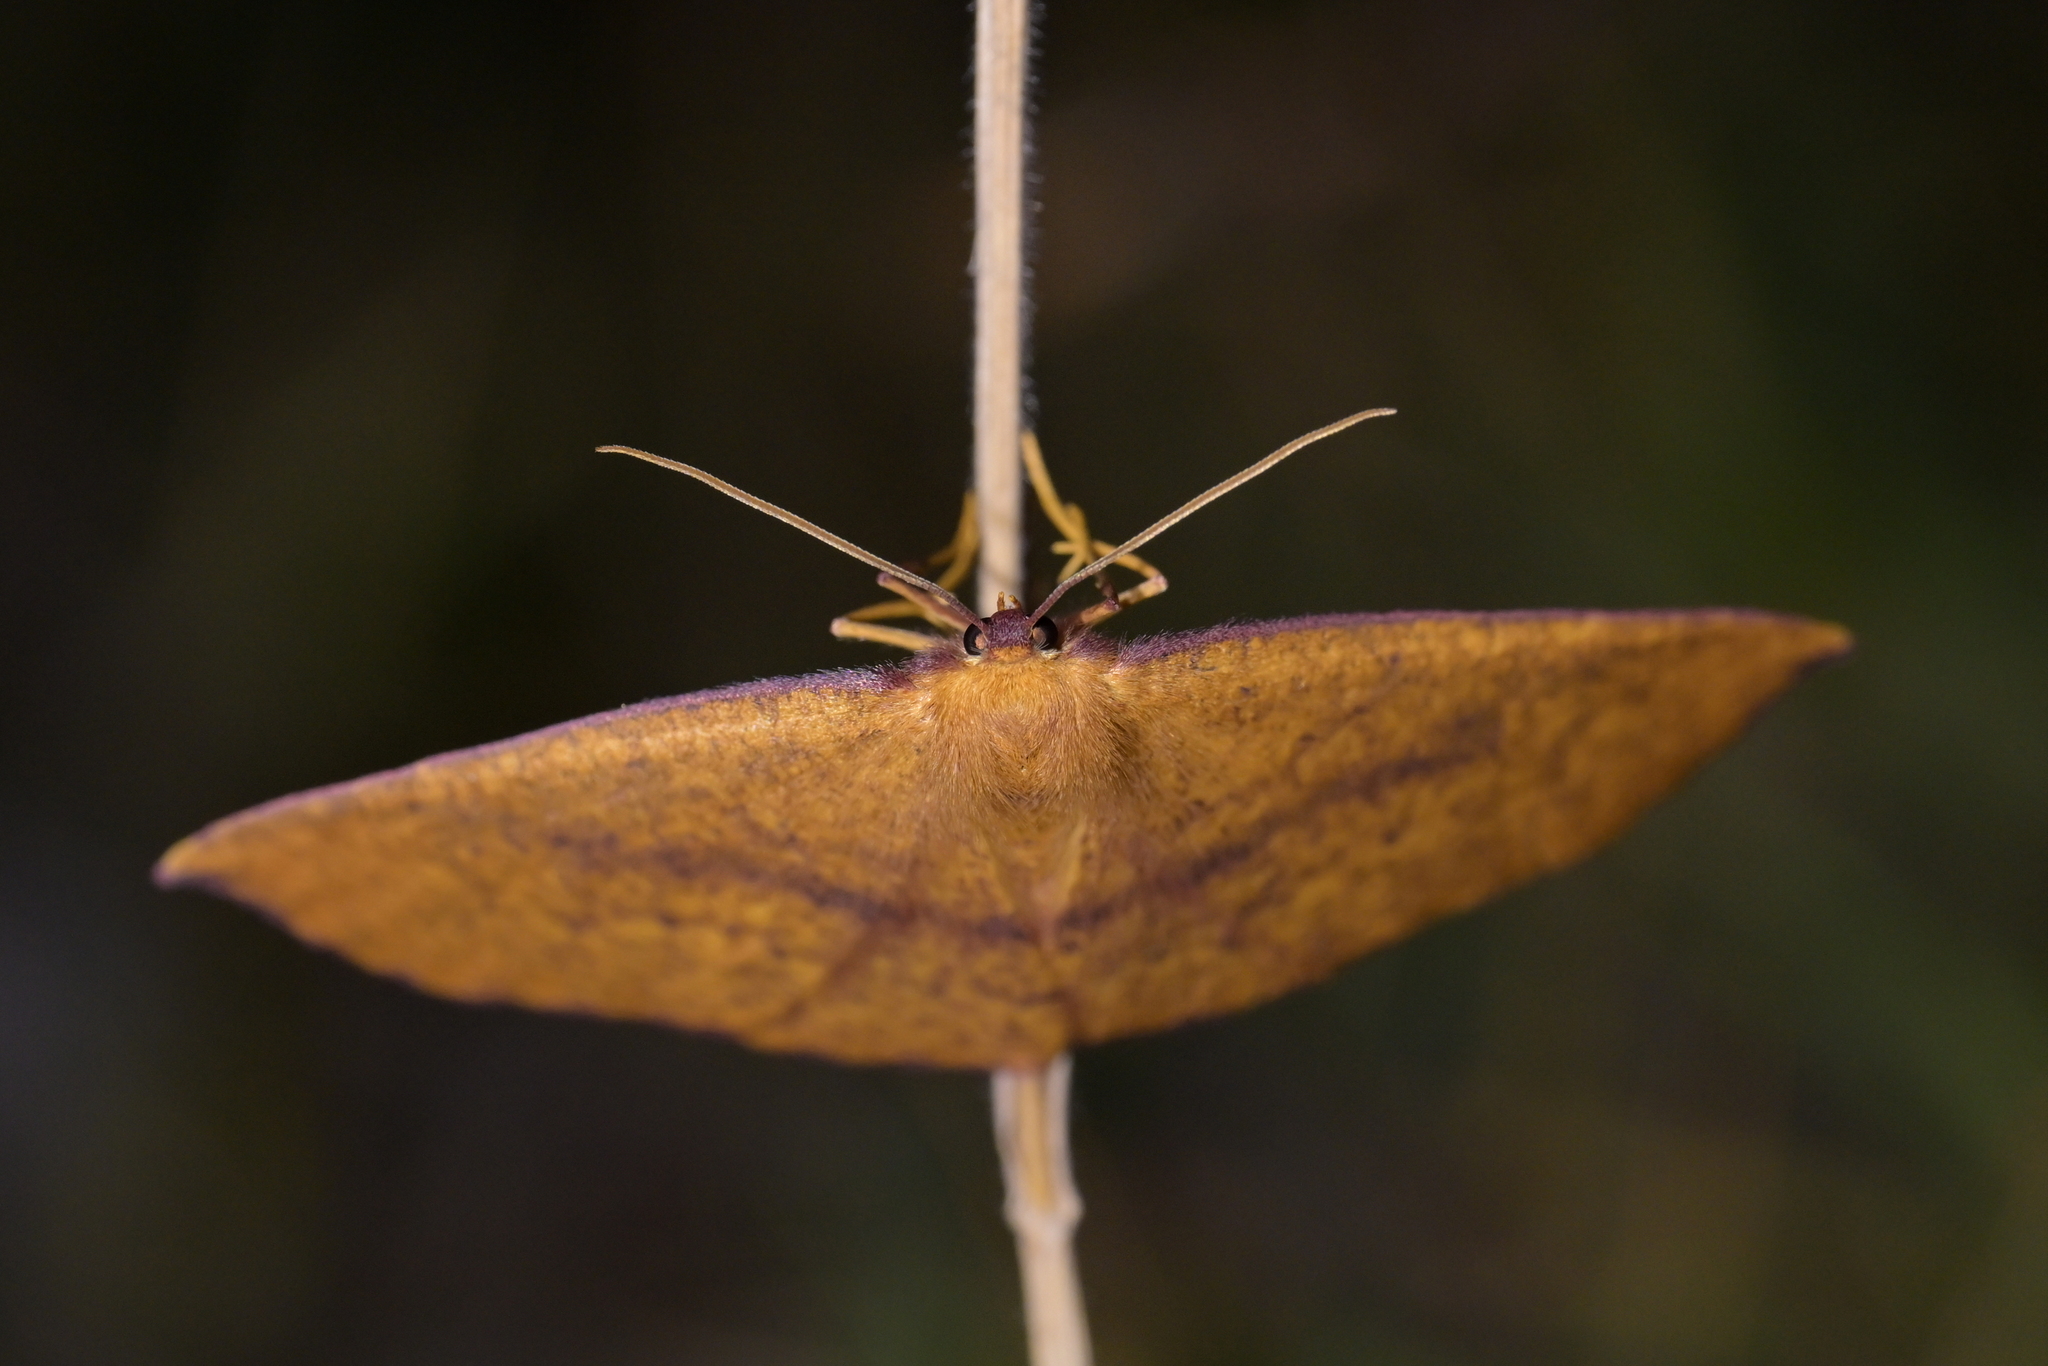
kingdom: Animalia
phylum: Arthropoda
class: Insecta
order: Lepidoptera
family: Geometridae
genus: Xyridacma
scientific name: Xyridacma alectoraria
